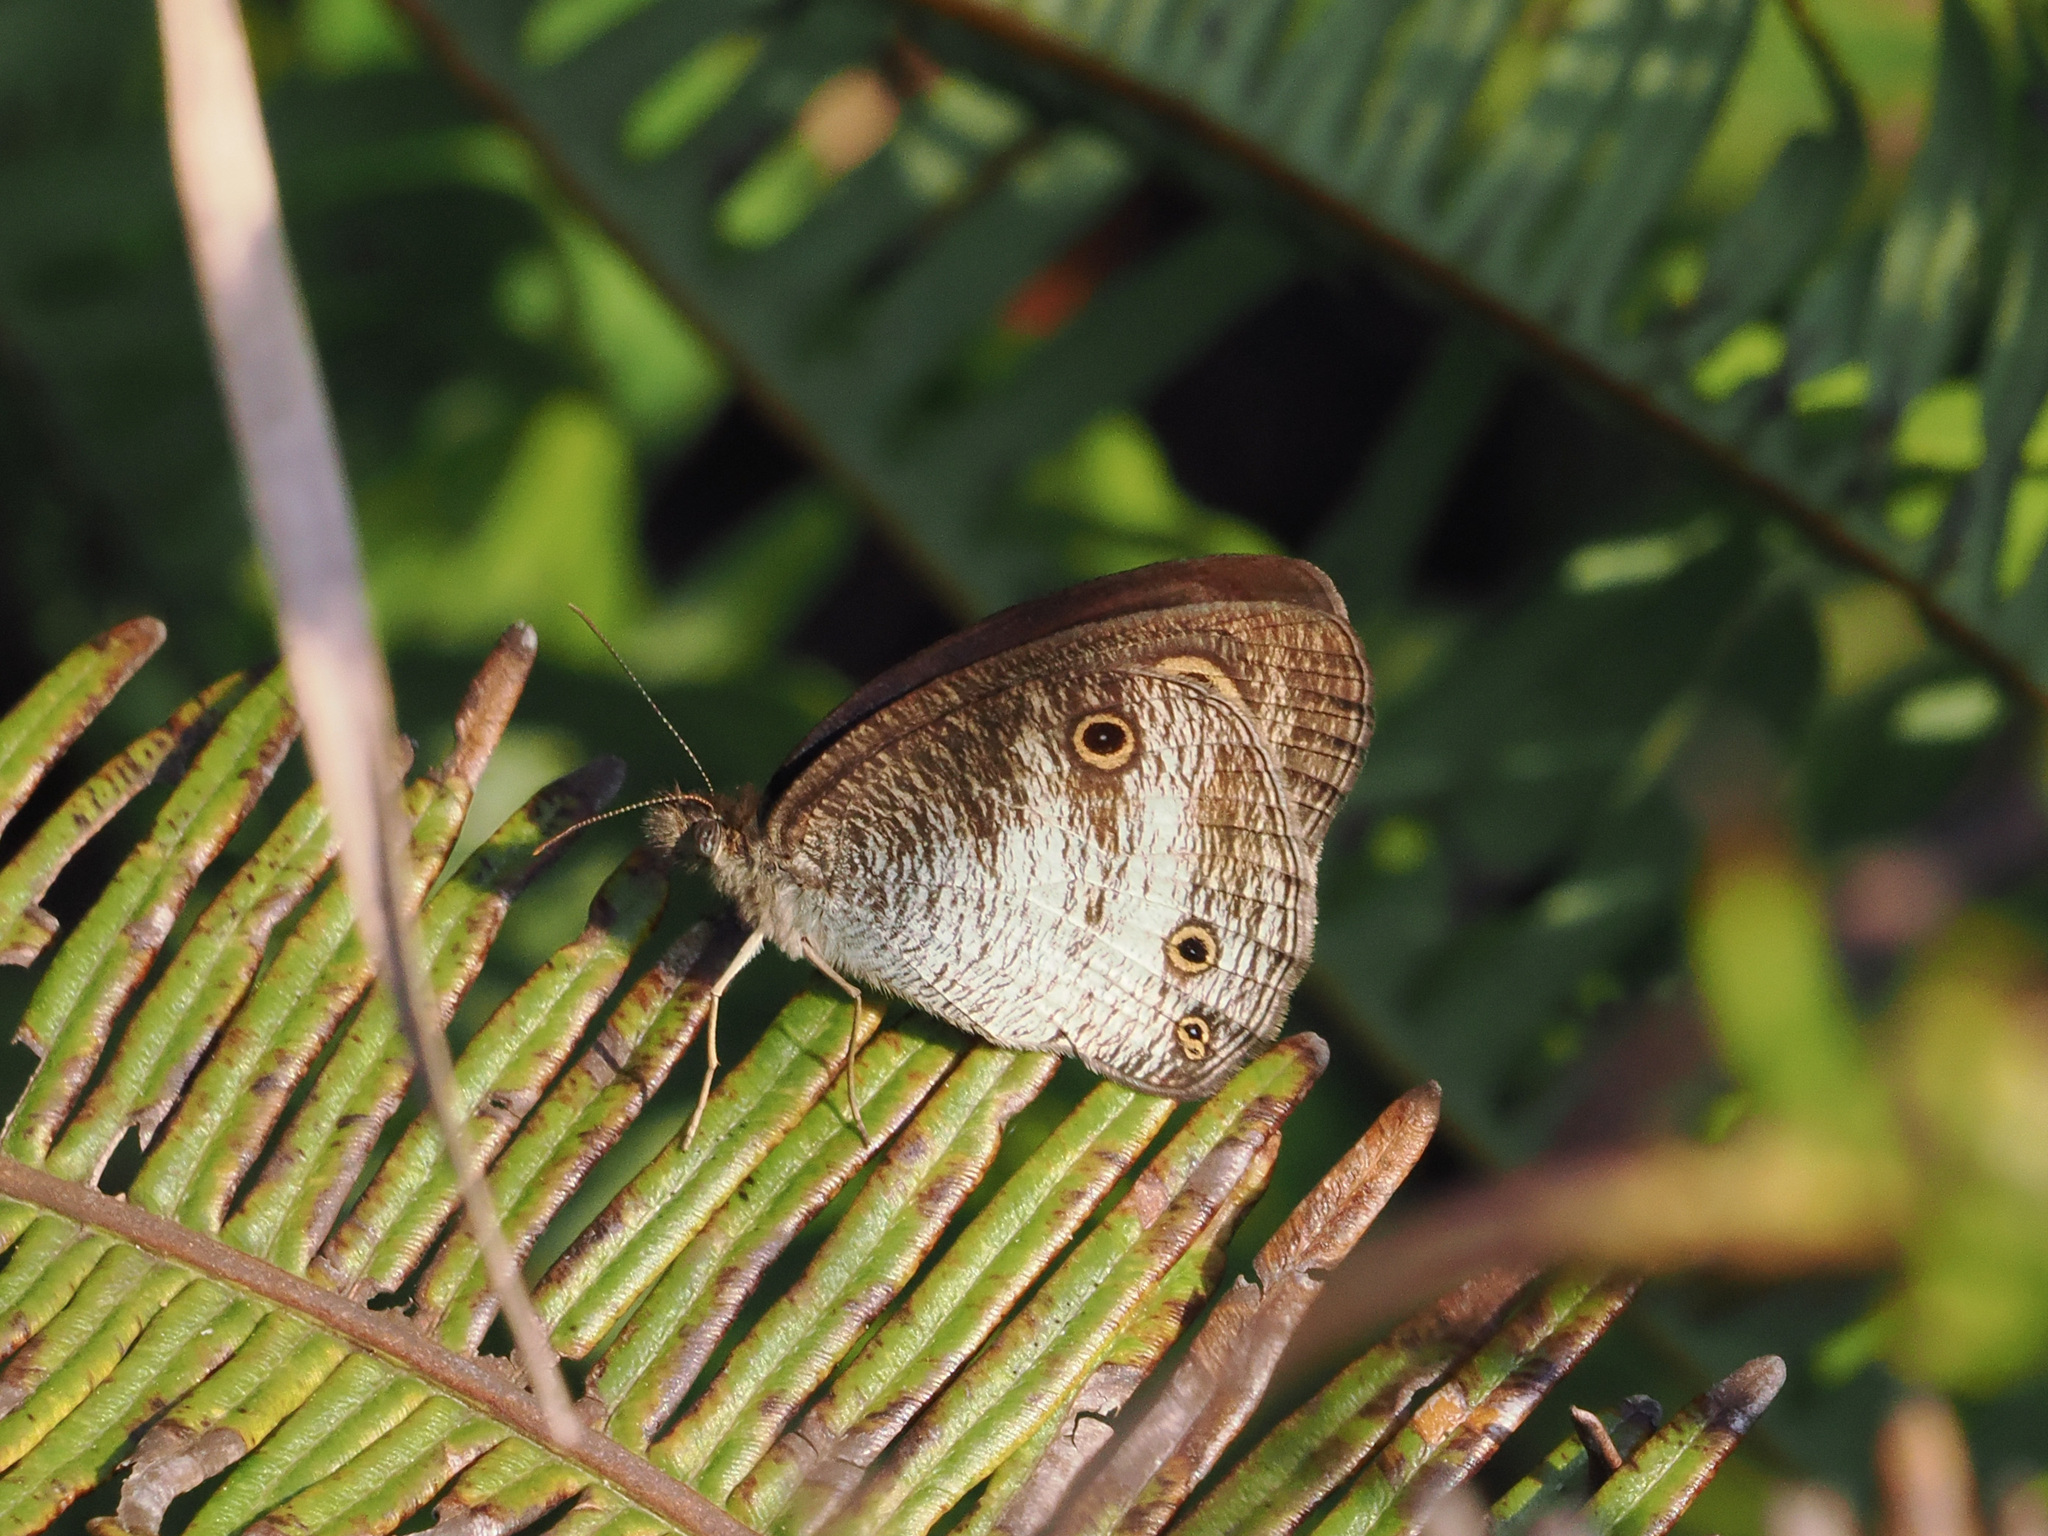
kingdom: Animalia
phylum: Arthropoda
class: Insecta
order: Lepidoptera
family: Nymphalidae
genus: Ypthima
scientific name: Ypthima pandocus
